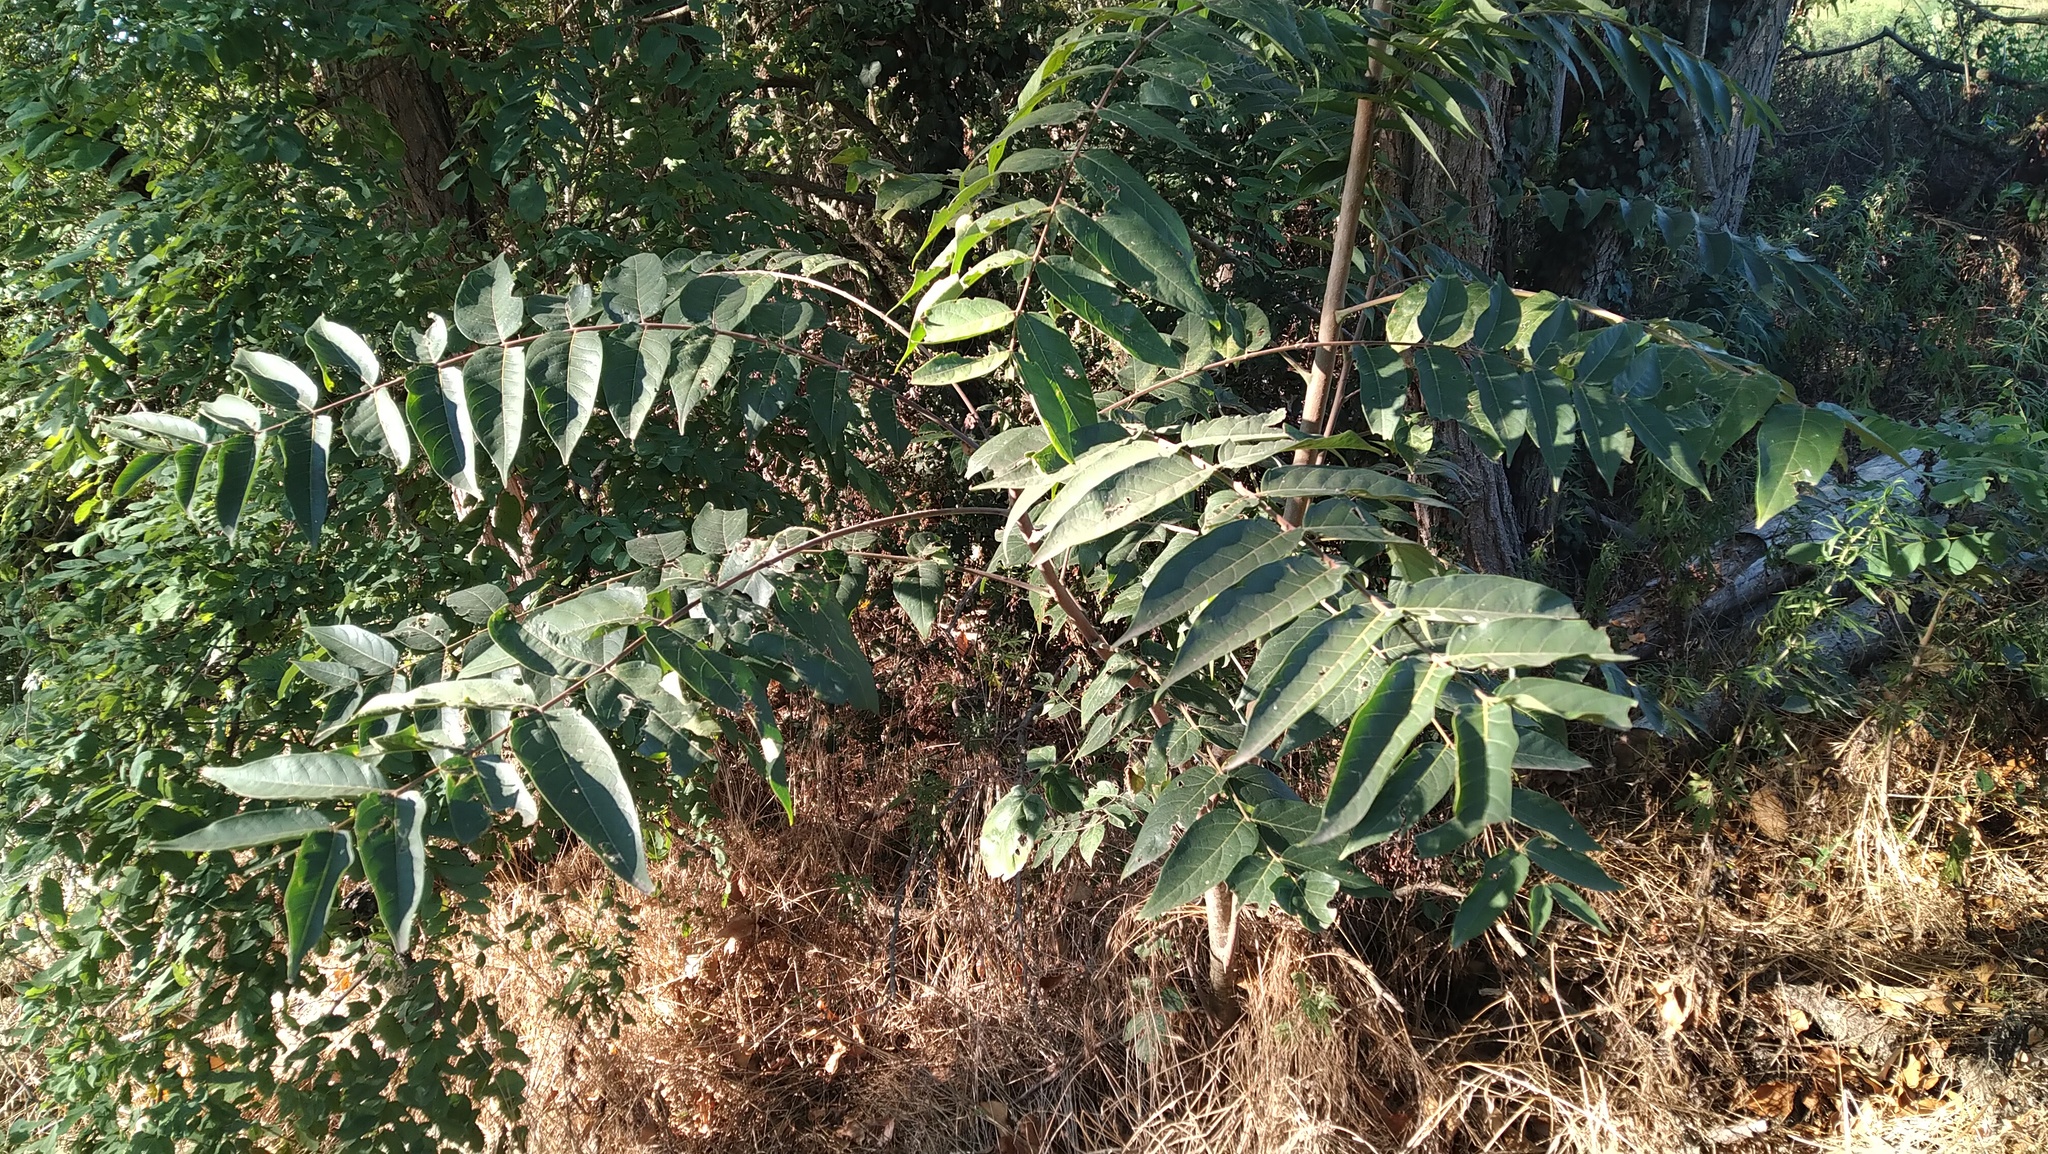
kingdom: Animalia
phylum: Arthropoda
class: Insecta
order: Lepidoptera
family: Saturniidae
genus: Samia
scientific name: Samia cynthia
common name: Ailanthus silkmoth
